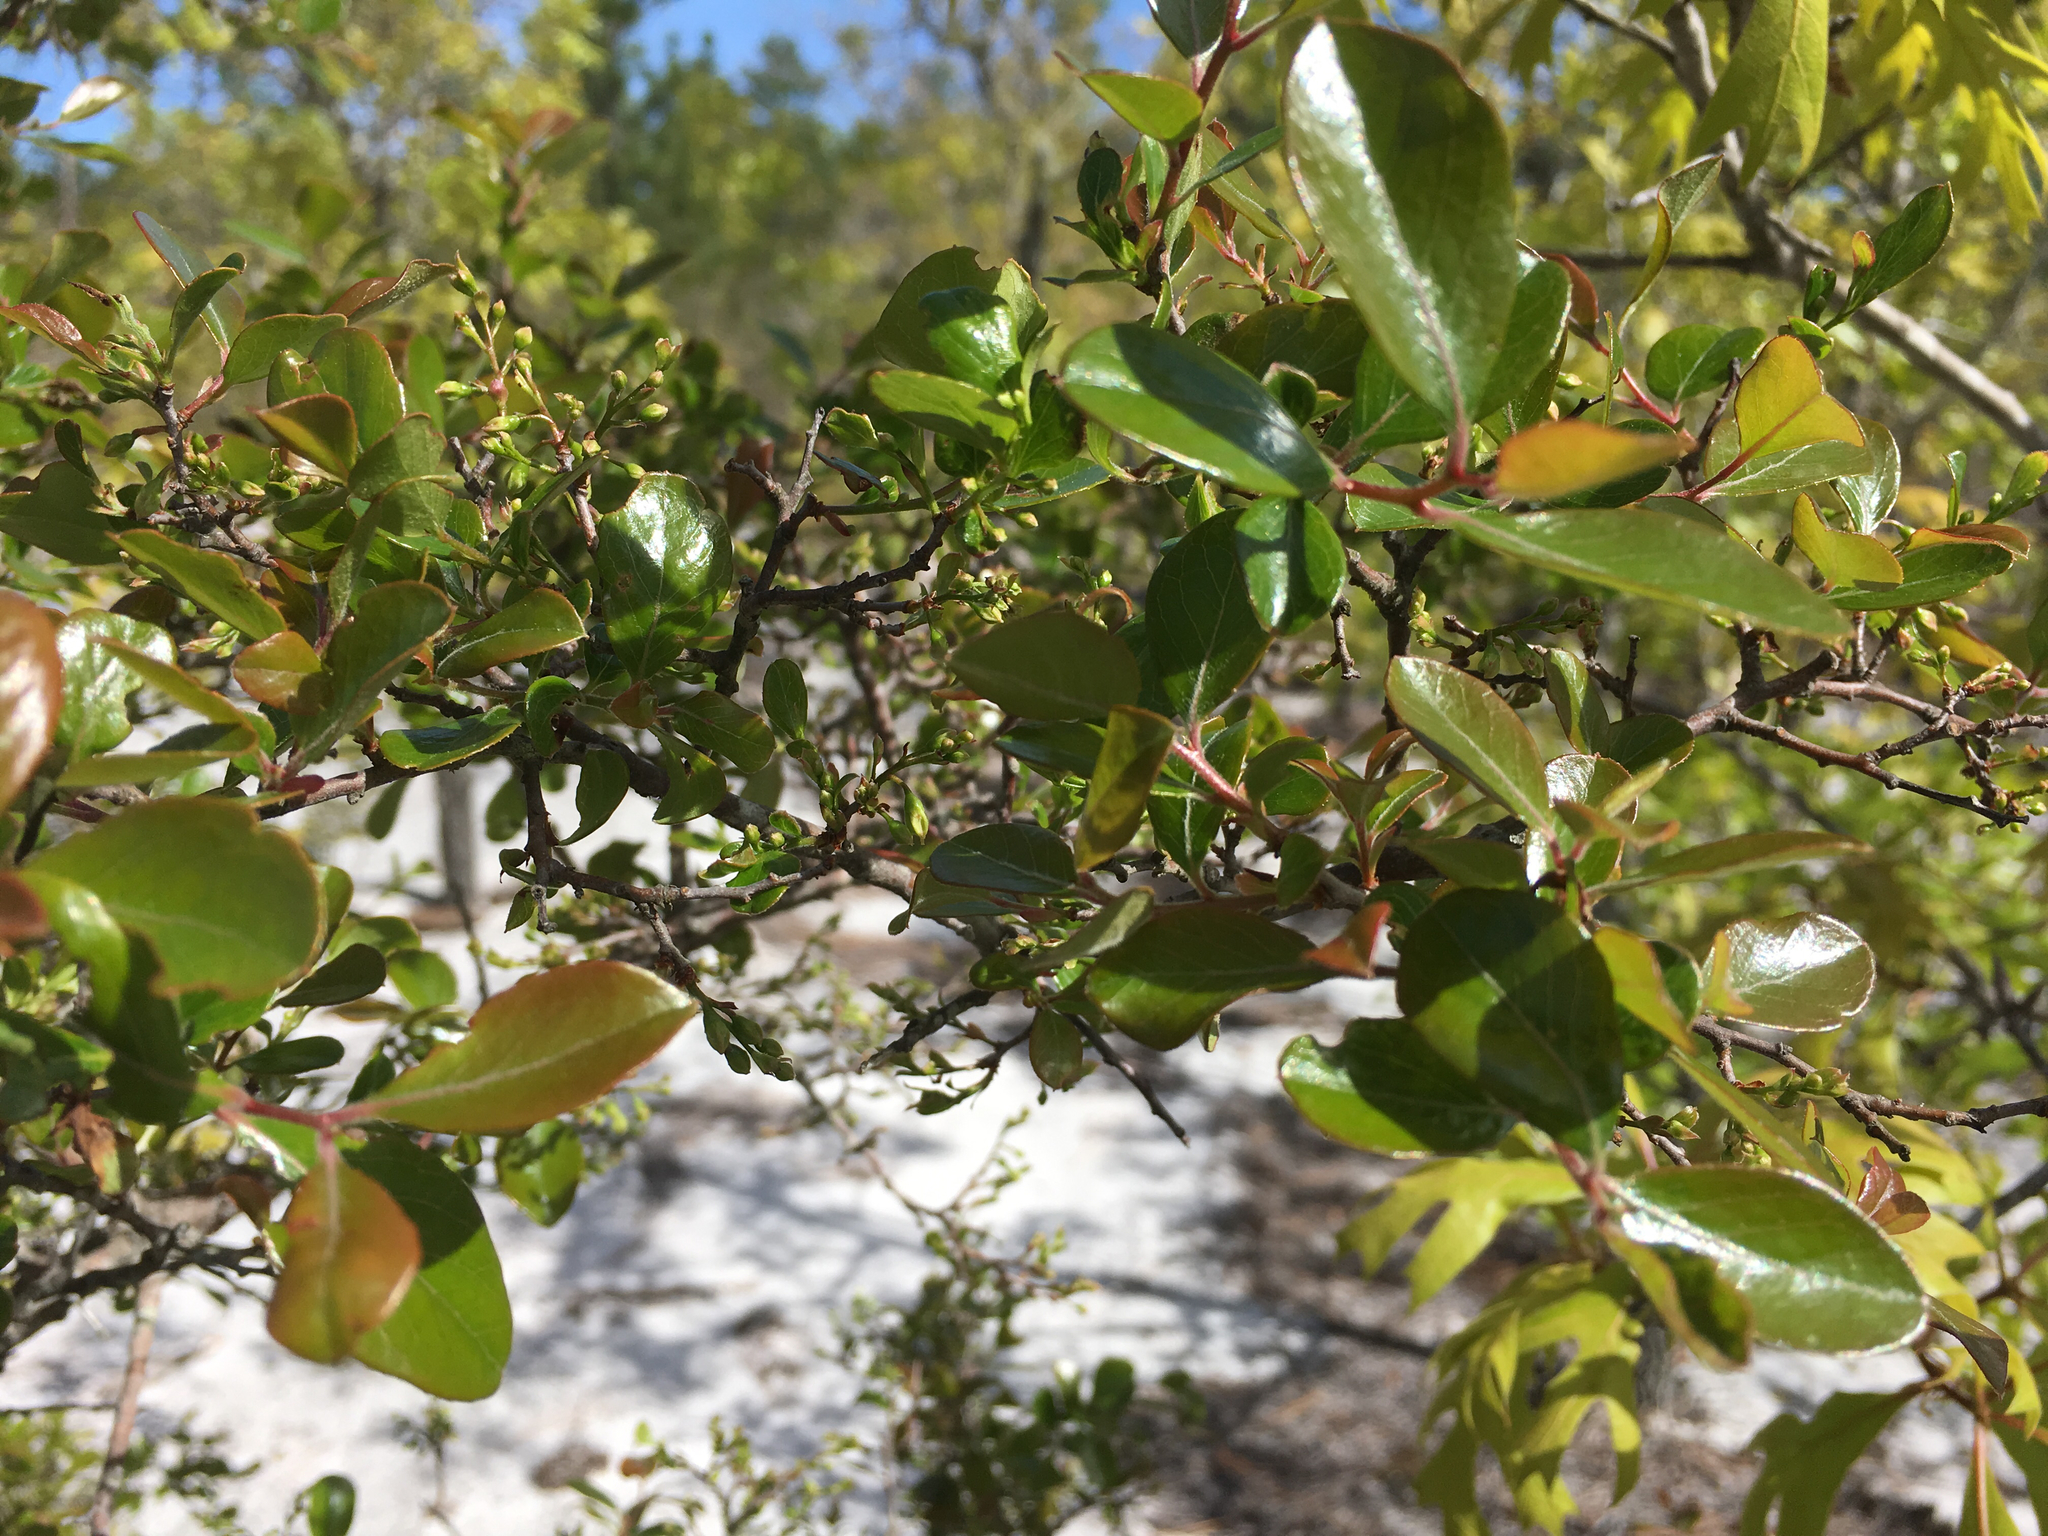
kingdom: Plantae
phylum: Tracheophyta
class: Magnoliopsida
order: Ericales
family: Ericaceae
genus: Vaccinium
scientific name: Vaccinium arboreum
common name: Farkleberry
